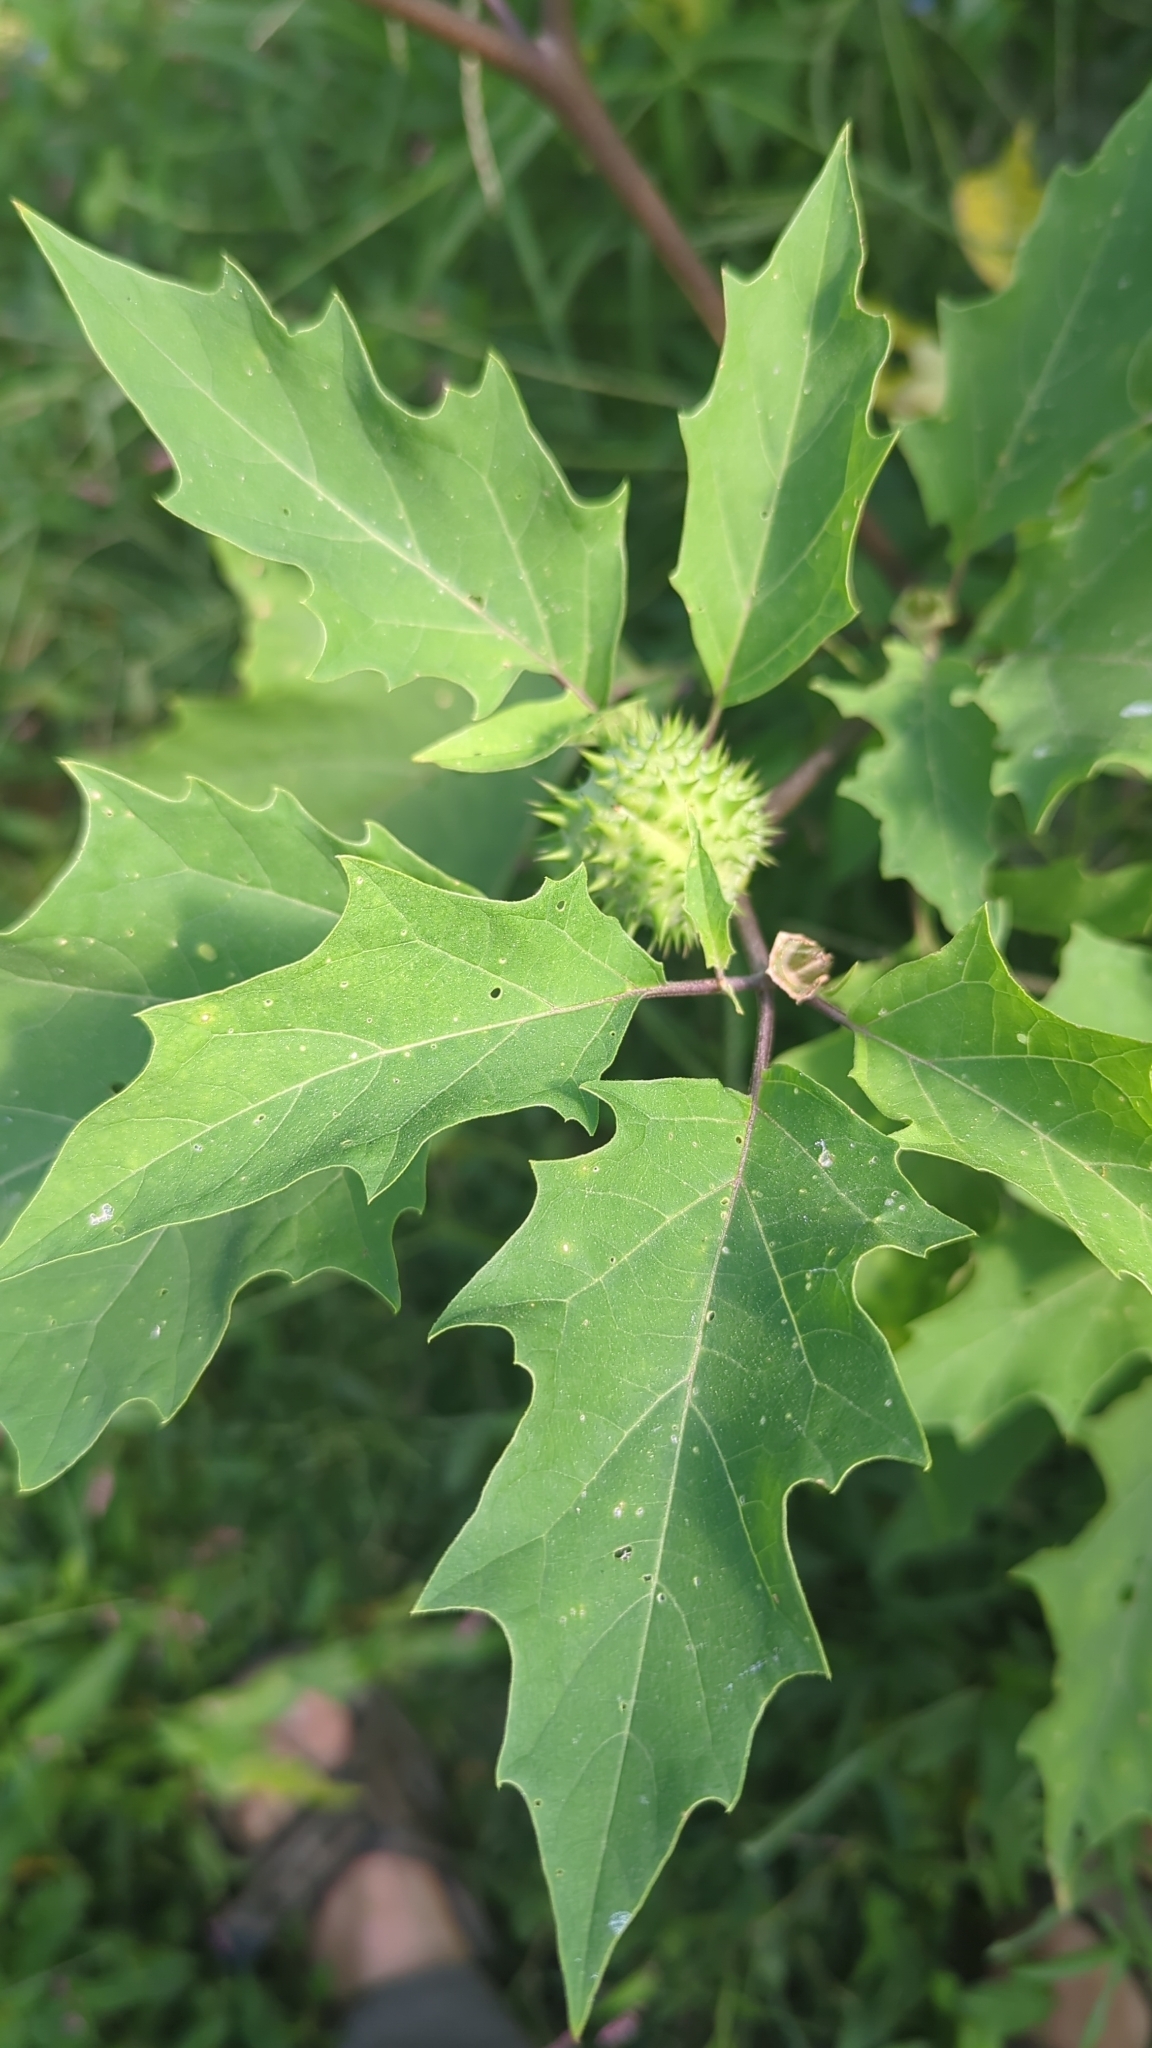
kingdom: Plantae
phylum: Tracheophyta
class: Magnoliopsida
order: Solanales
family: Solanaceae
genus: Datura
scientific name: Datura stramonium
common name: Thorn-apple
